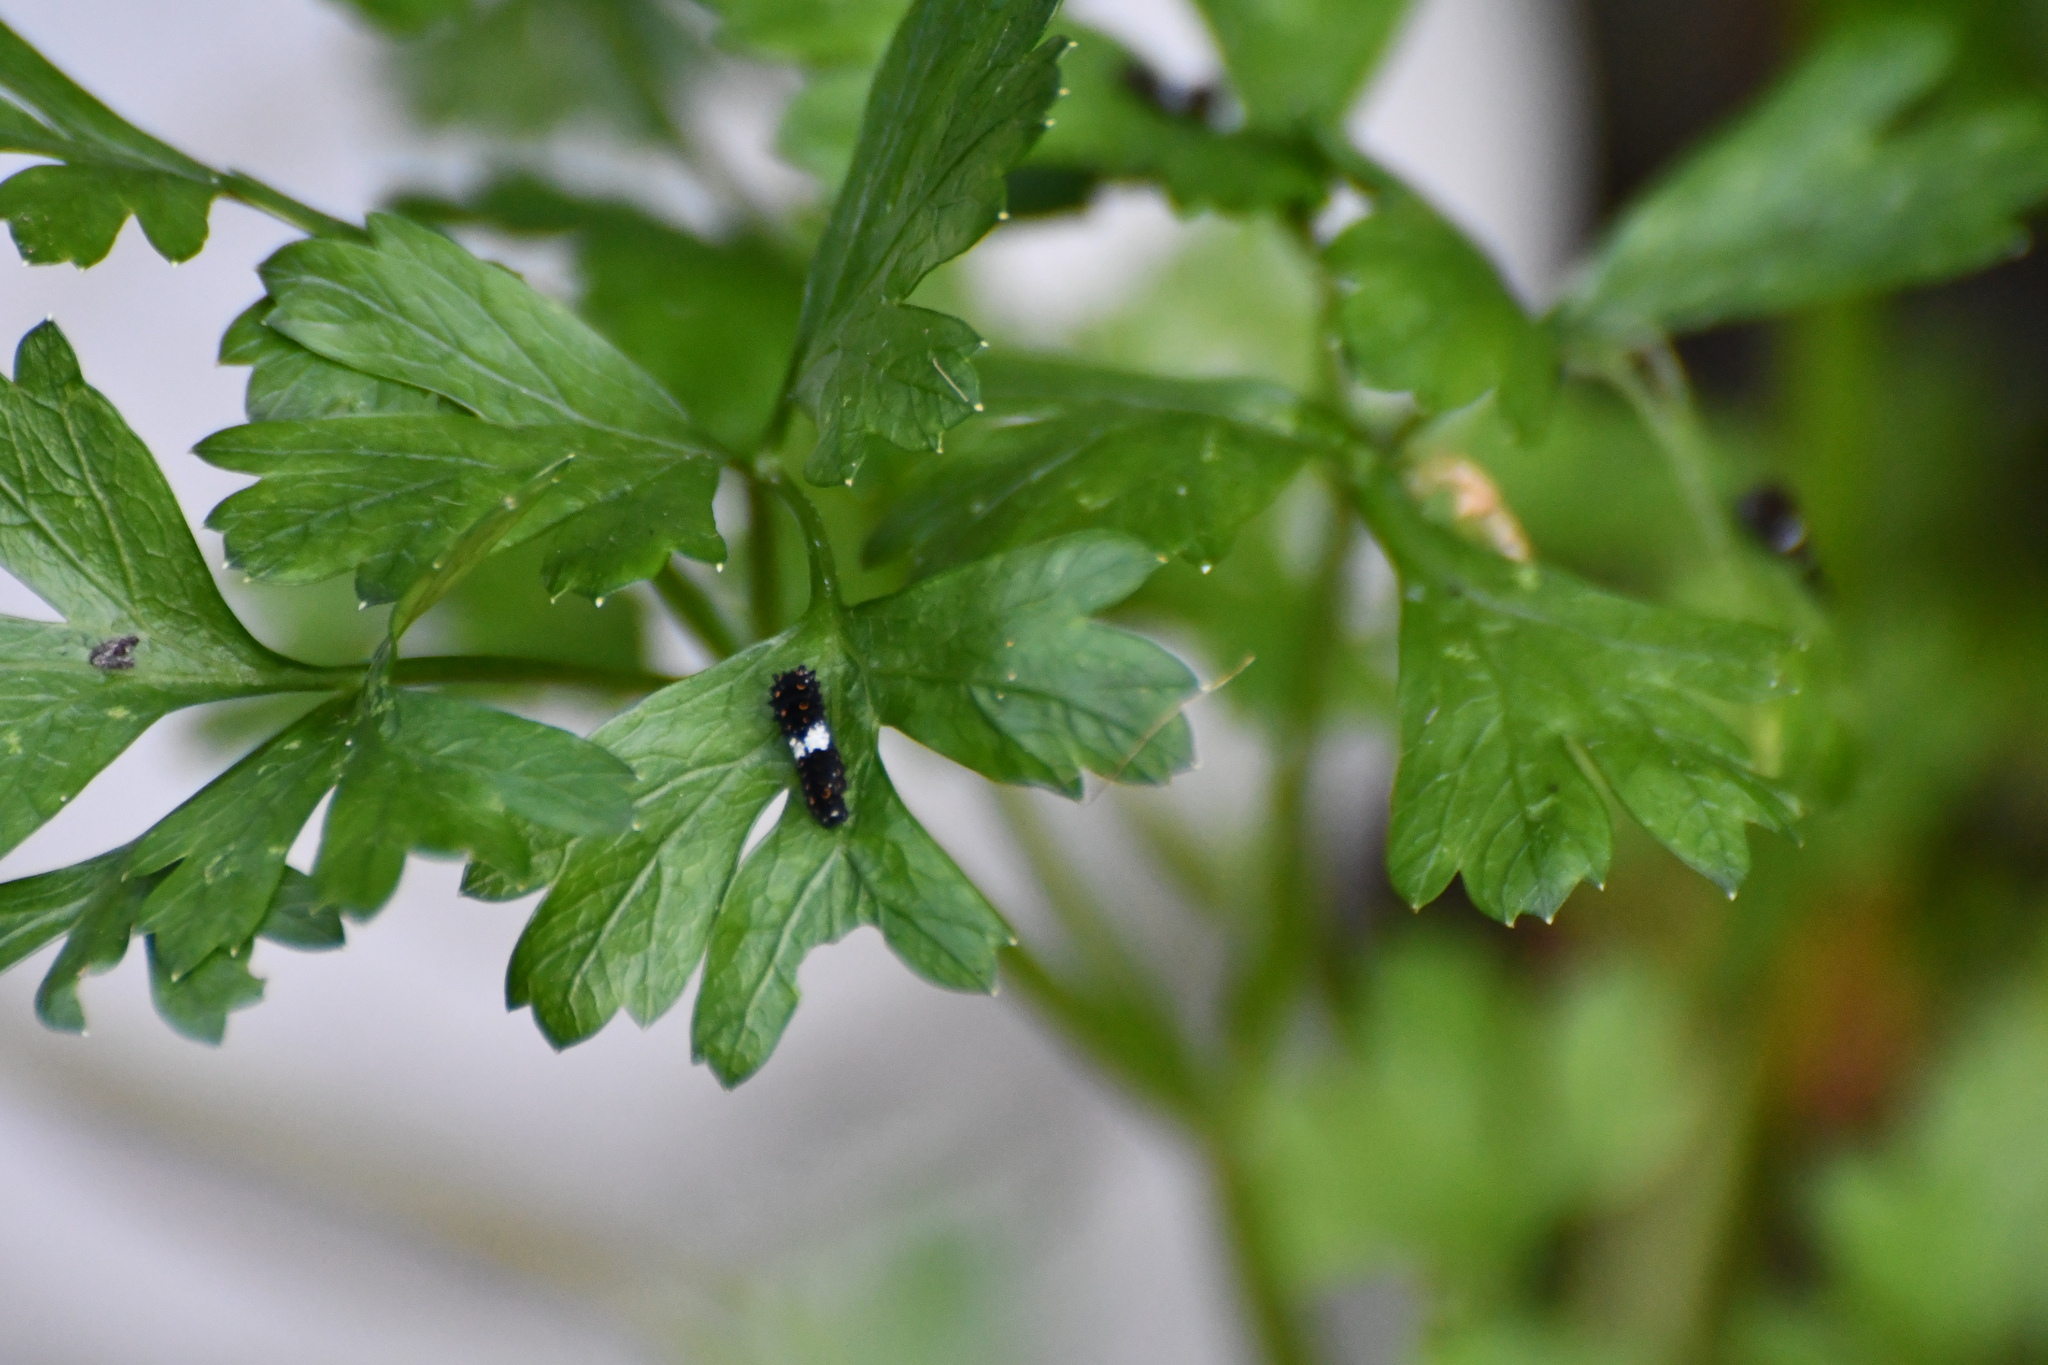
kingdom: Animalia
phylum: Arthropoda
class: Insecta
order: Lepidoptera
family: Papilionidae
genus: Papilio
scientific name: Papilio polyxenes
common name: Black swallowtail
